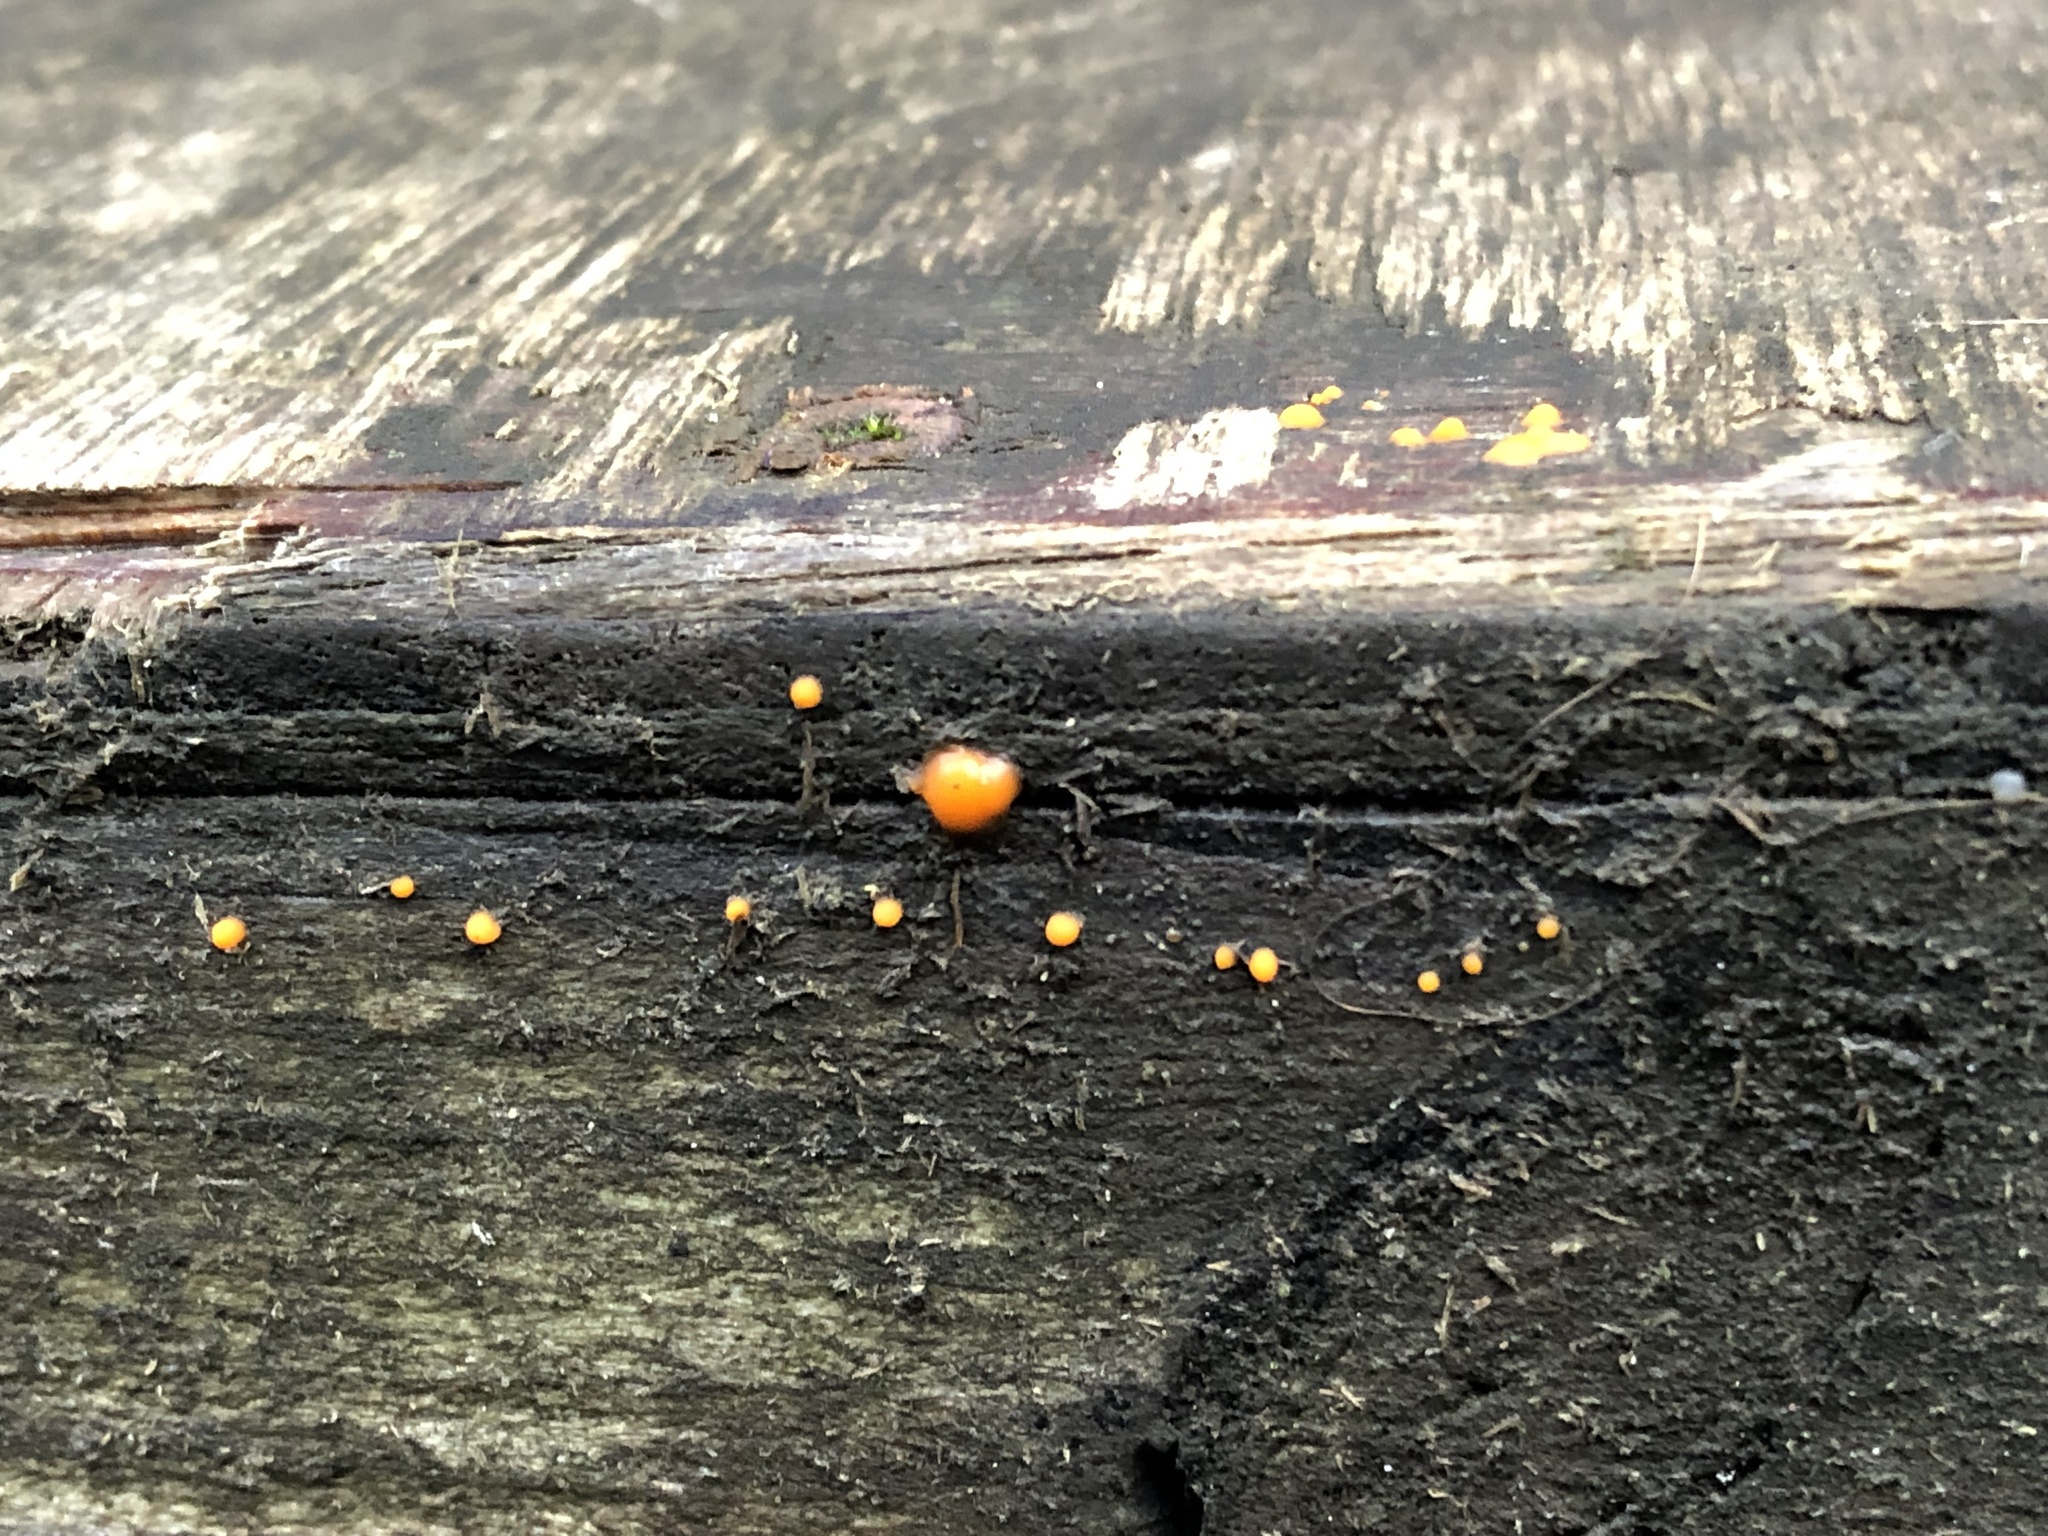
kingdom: Fungi
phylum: Basidiomycota
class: Dacrymycetes
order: Dacrymycetales
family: Dacrymycetaceae
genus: Dacrymyces
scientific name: Dacrymyces stillatus
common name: Common jelly spot
